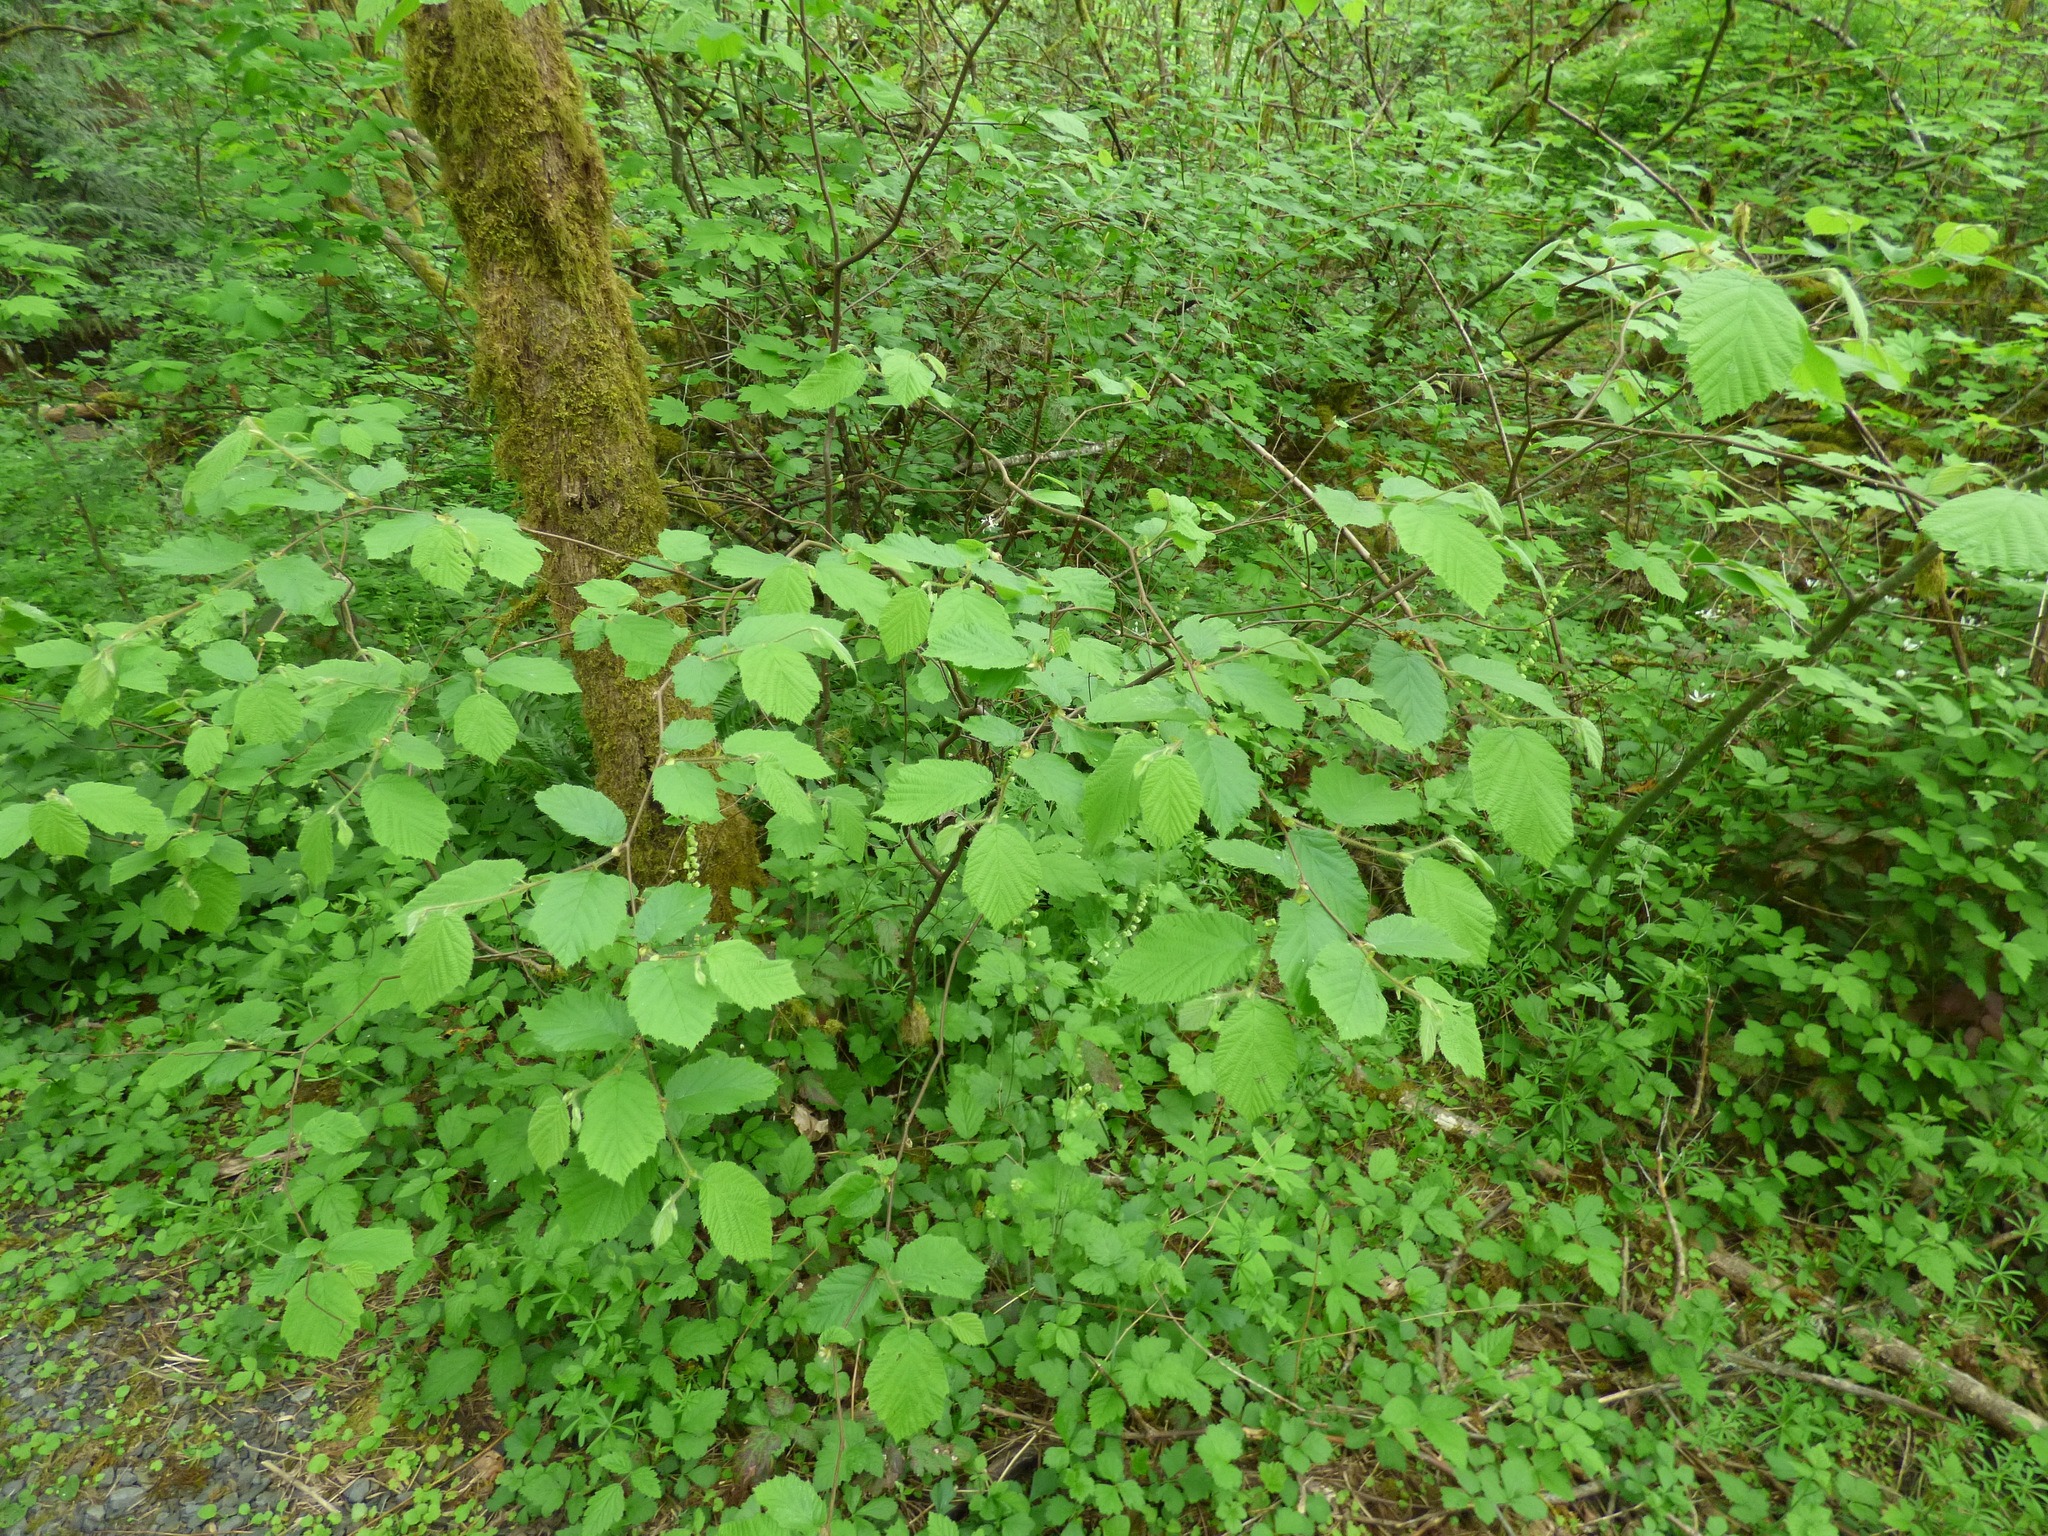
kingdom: Plantae
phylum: Tracheophyta
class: Magnoliopsida
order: Fagales
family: Betulaceae
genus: Corylus
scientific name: Corylus cornuta
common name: Beaked hazel
